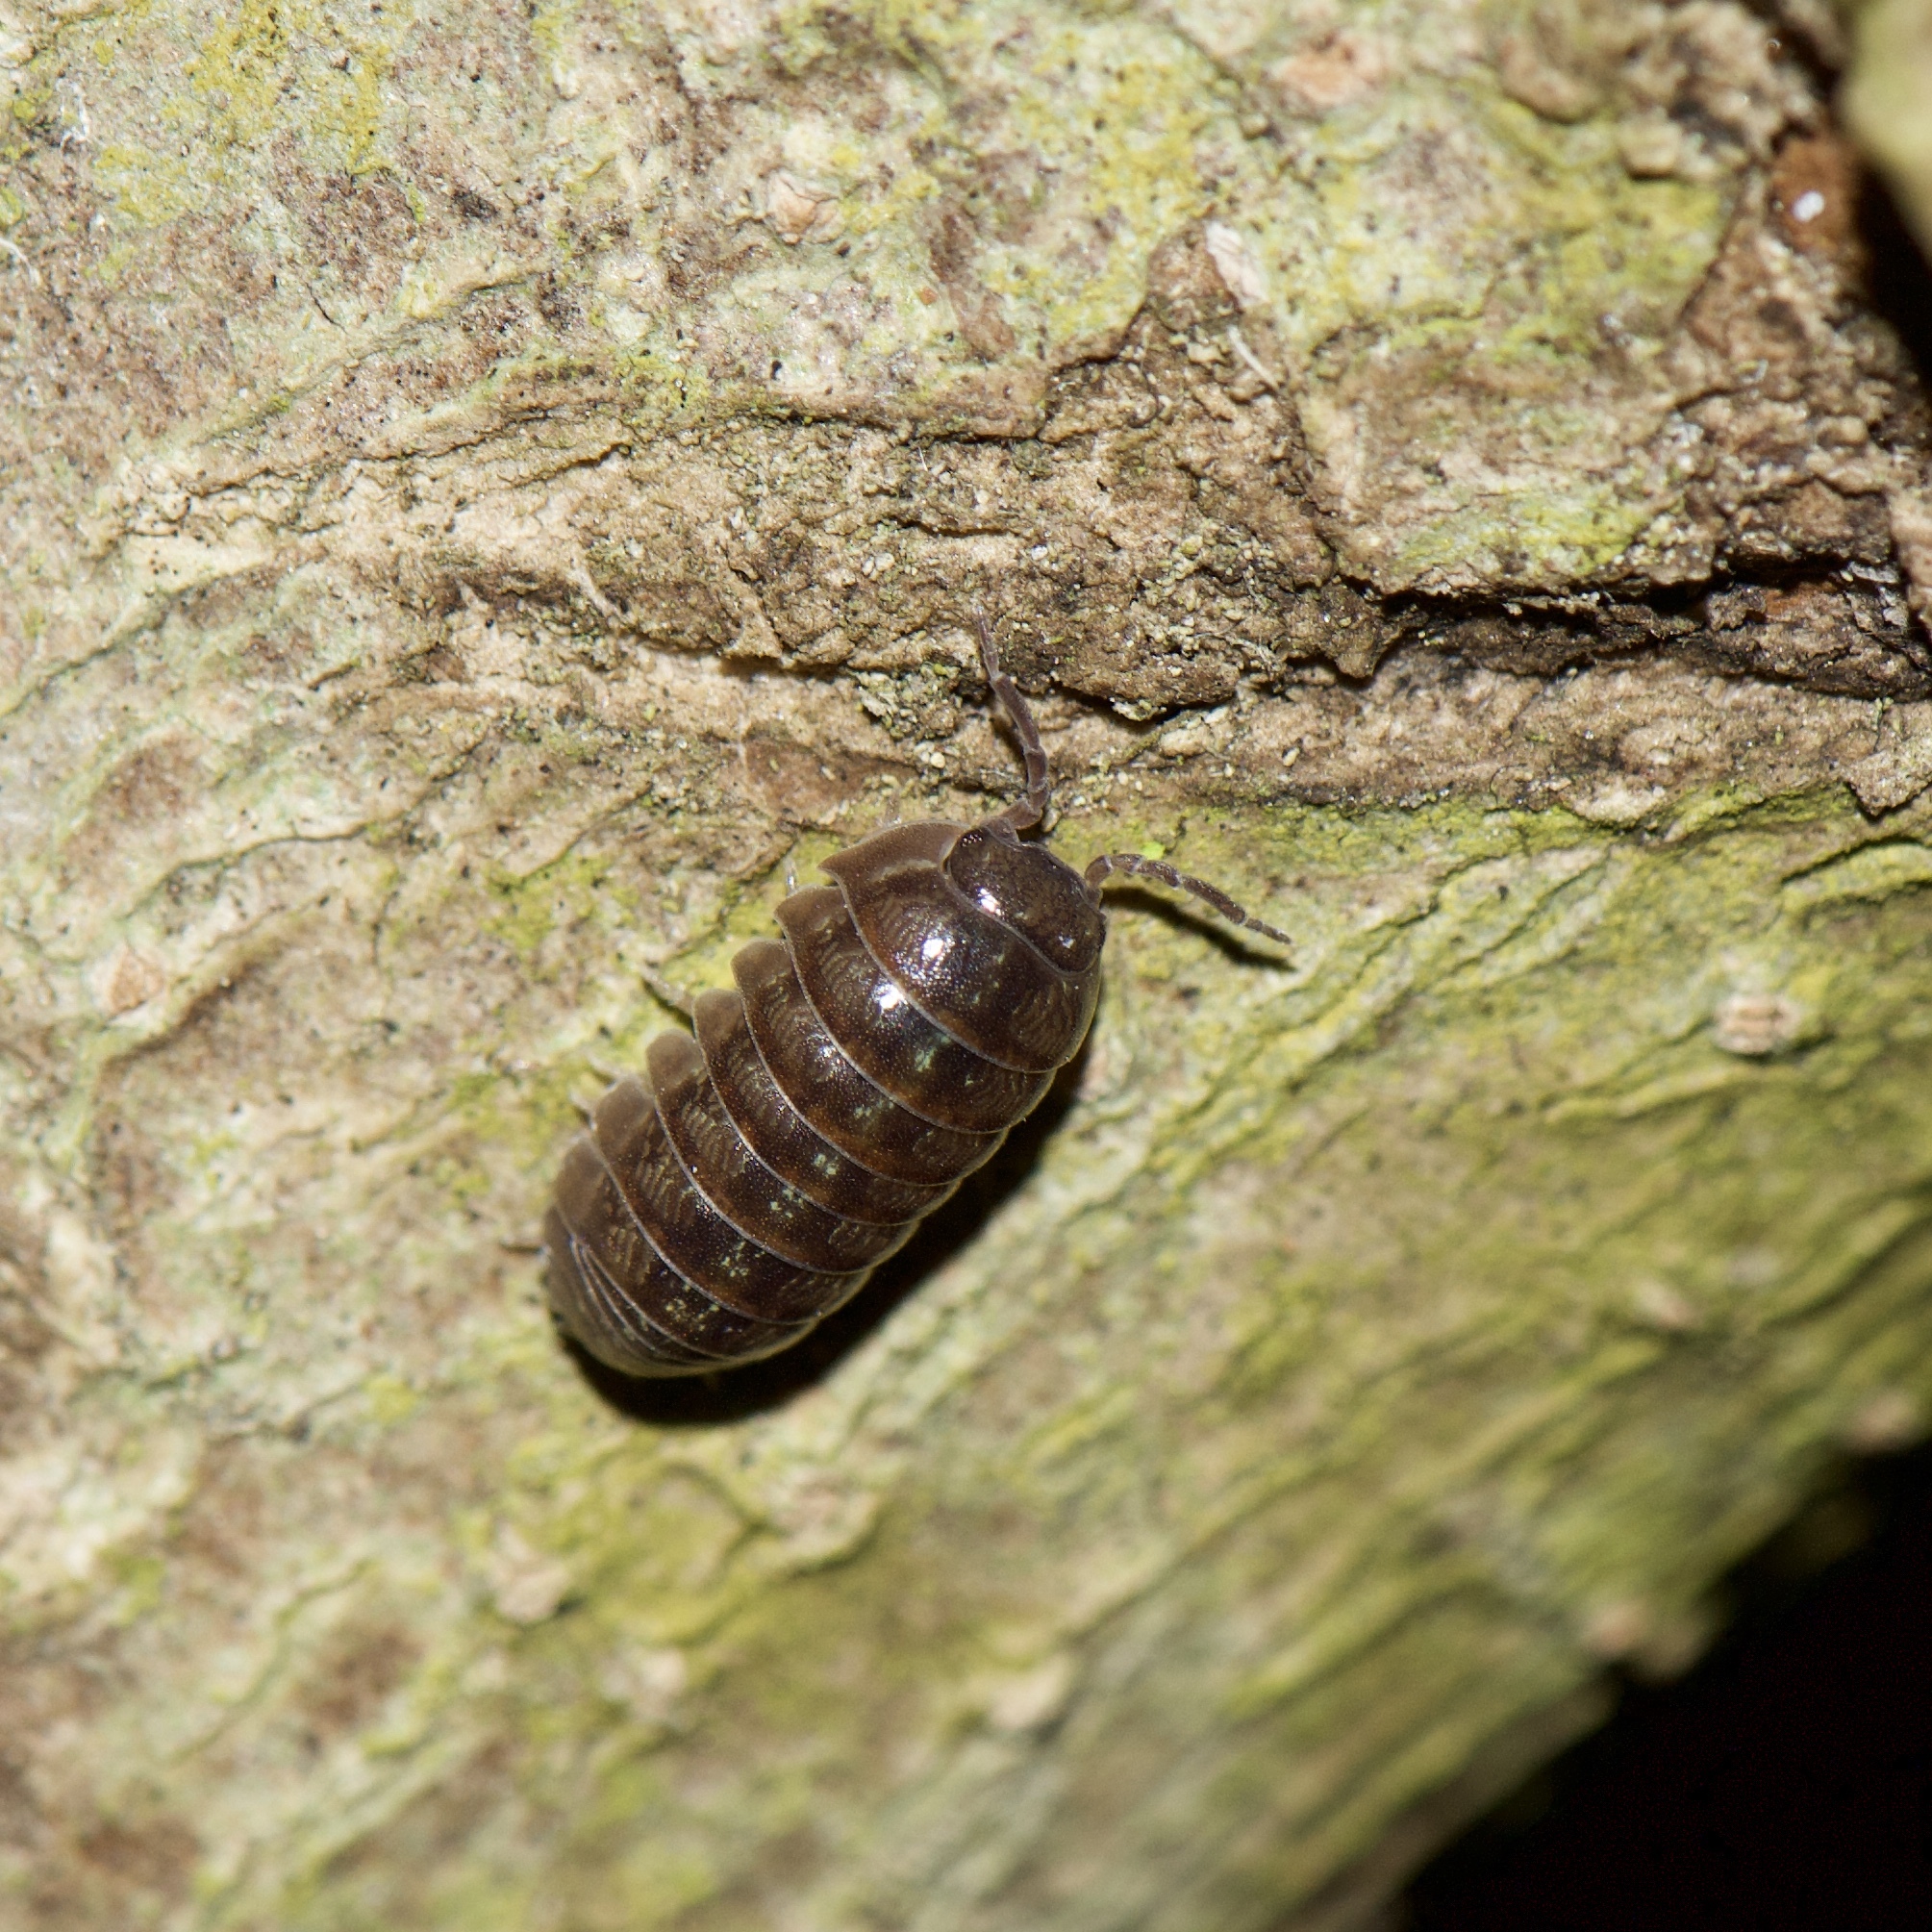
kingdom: Animalia
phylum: Arthropoda
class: Malacostraca
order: Isopoda
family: Armadillidiidae
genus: Armadillidium
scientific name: Armadillidium vulgare
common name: Common pill woodlouse
